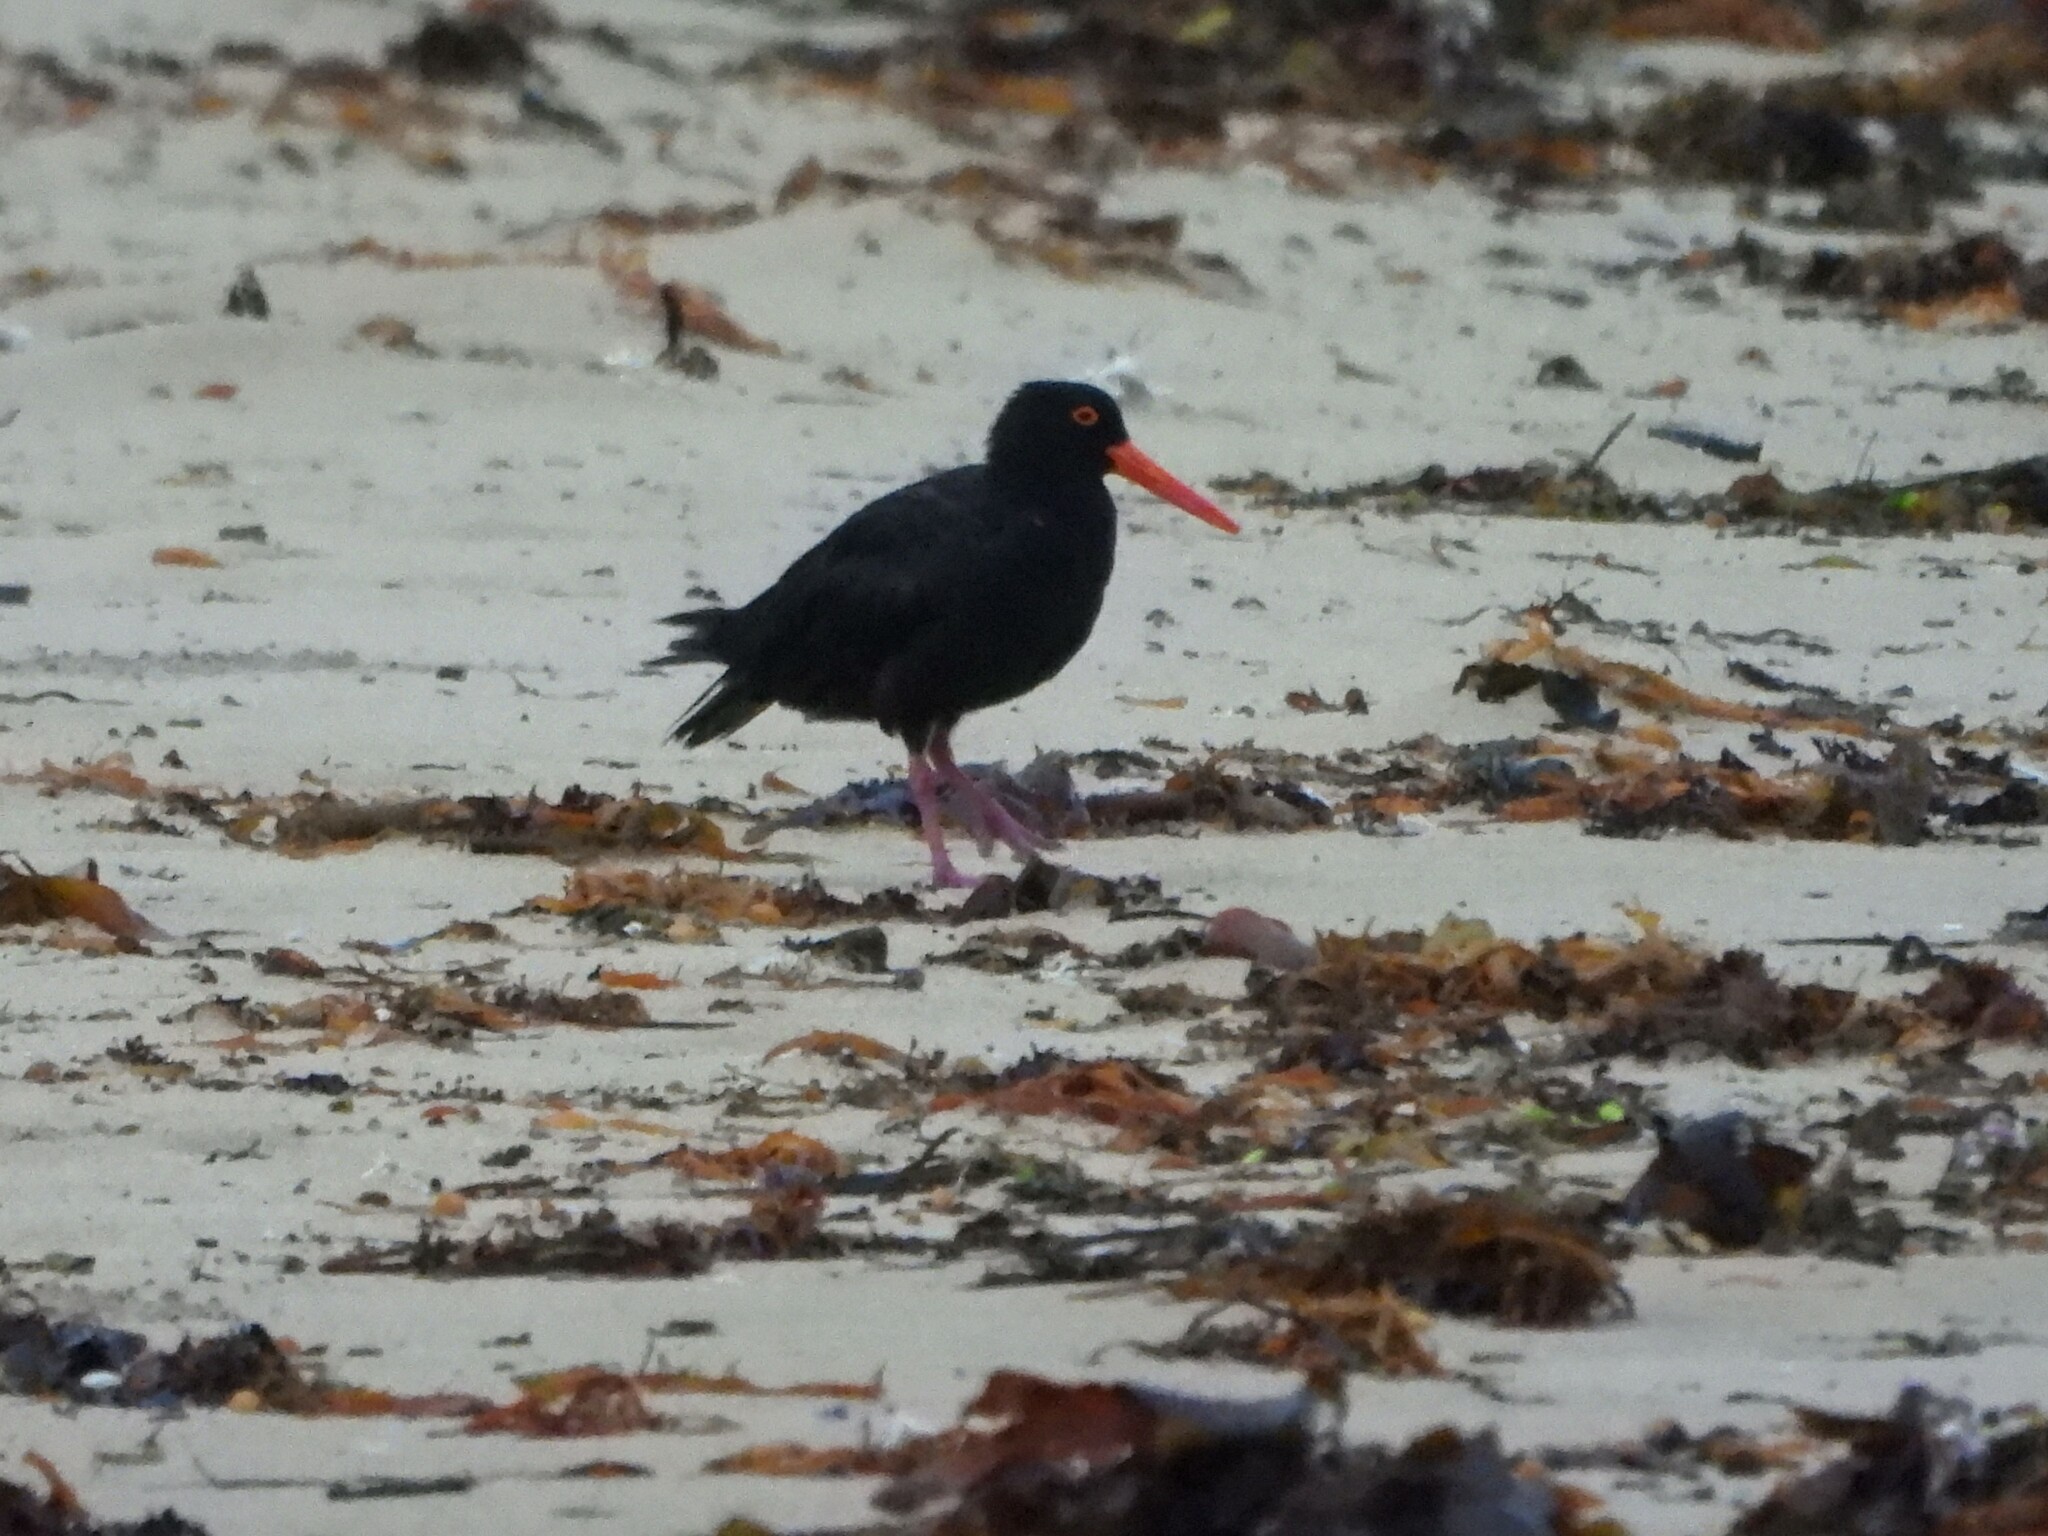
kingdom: Animalia
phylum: Chordata
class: Aves
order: Charadriiformes
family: Haematopodidae
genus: Haematopus
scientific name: Haematopus fuliginosus
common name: Sooty oystercatcher
